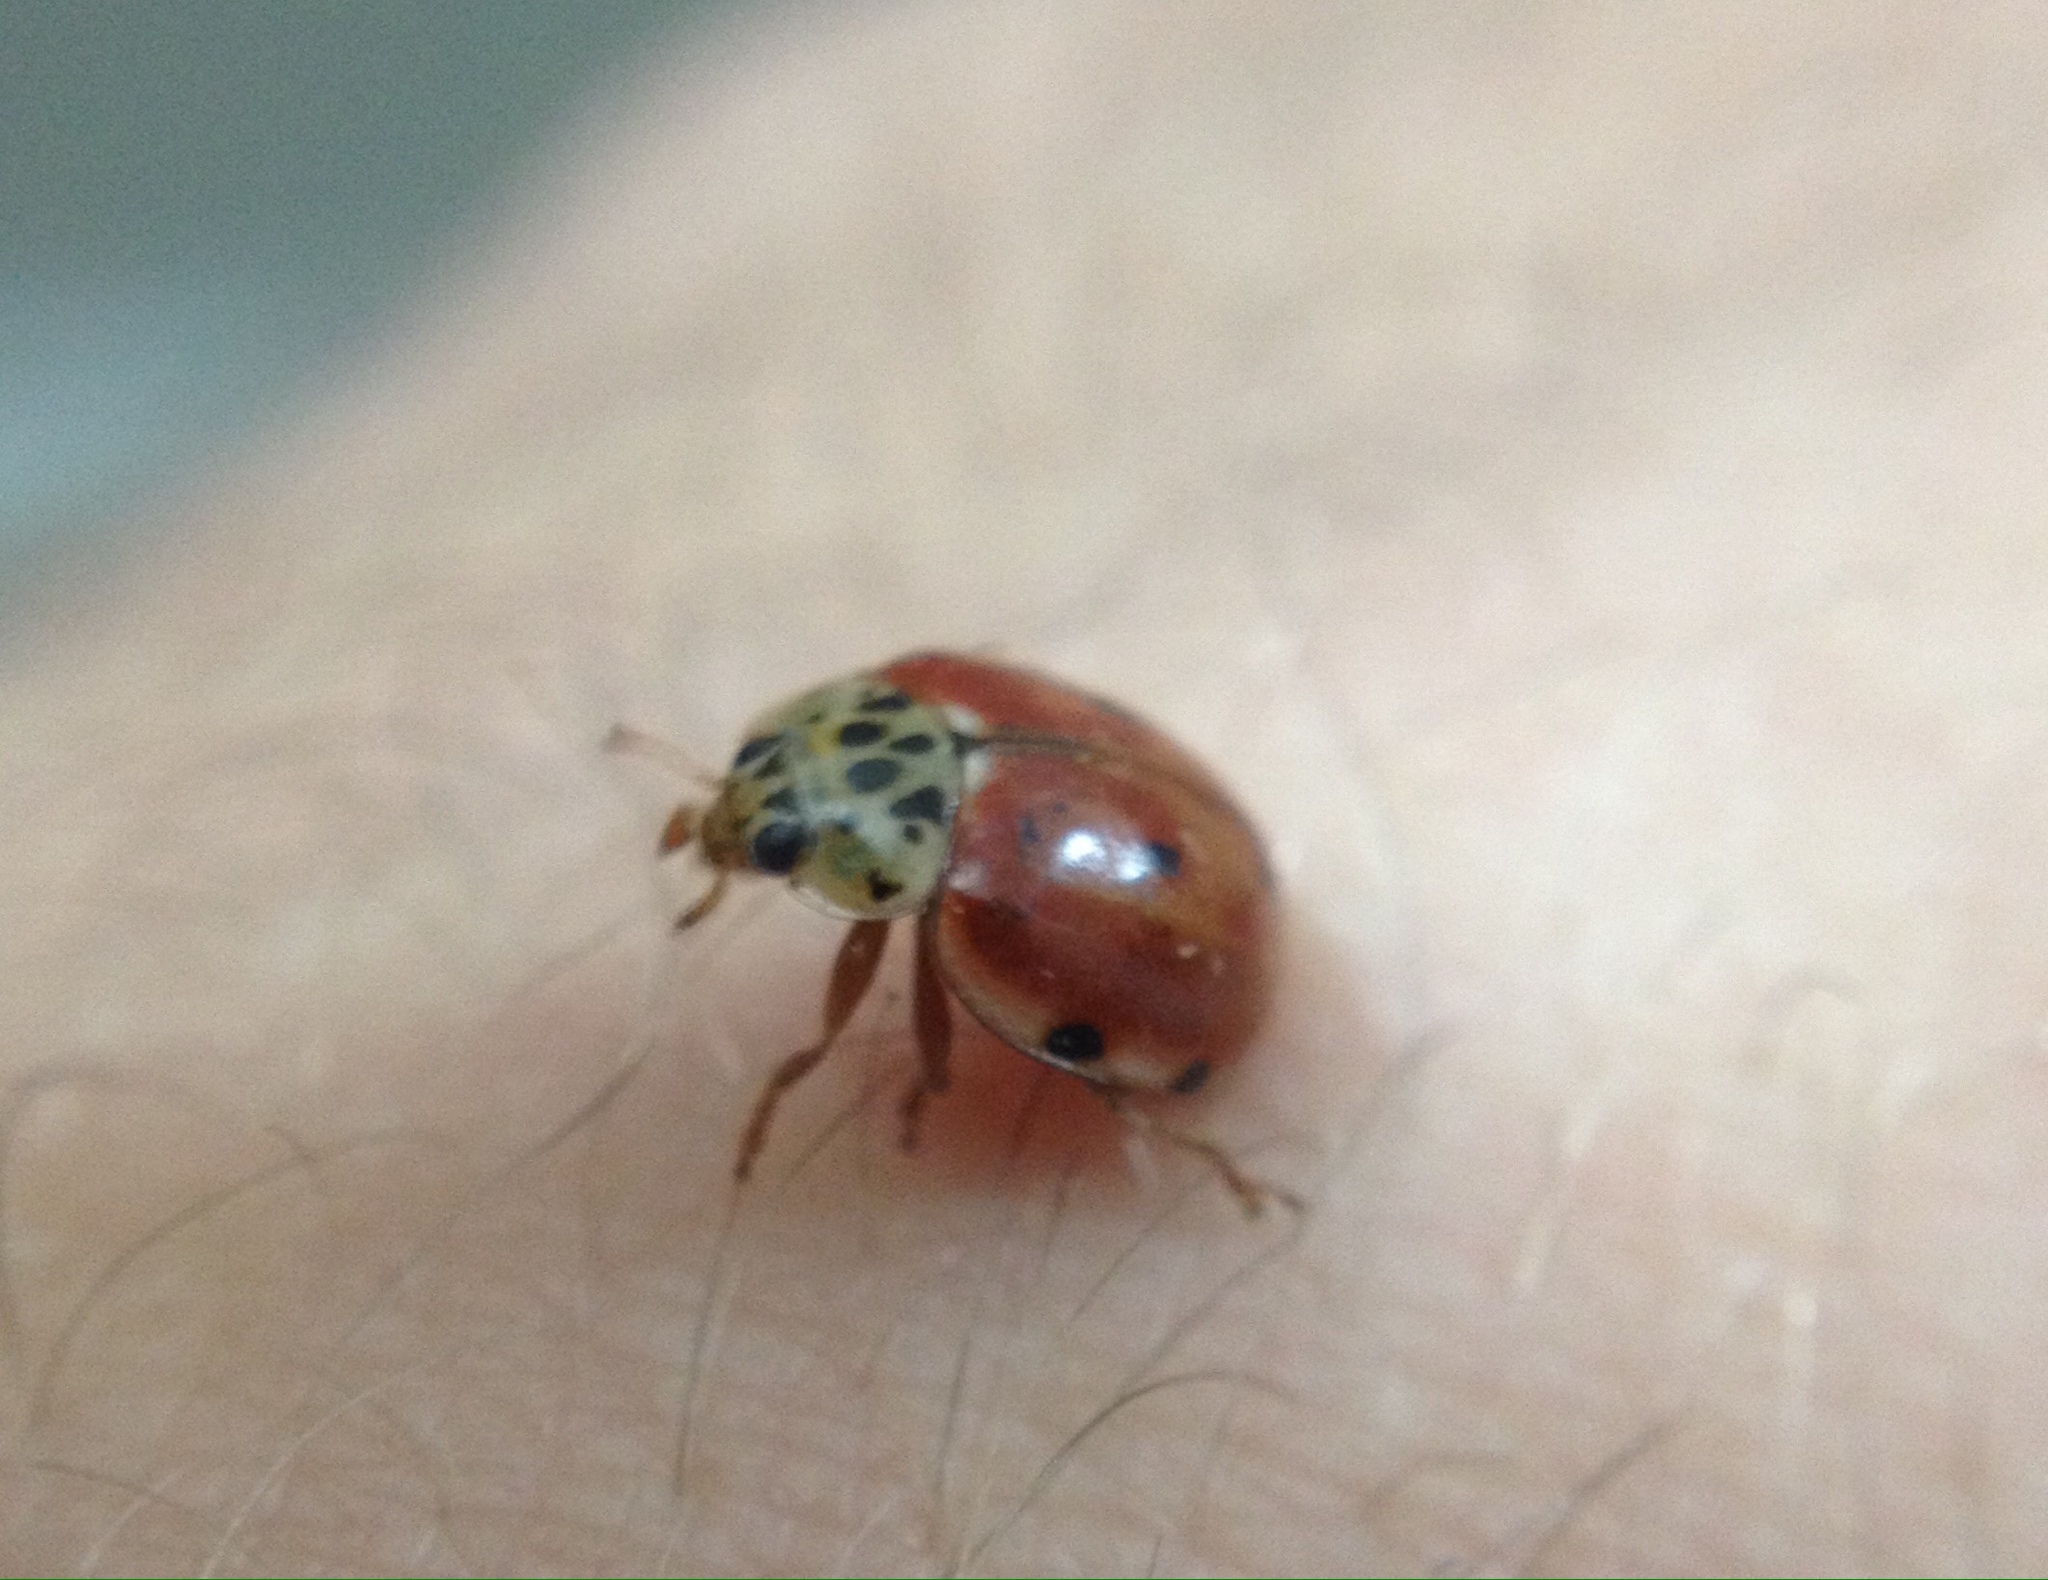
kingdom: Animalia
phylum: Arthropoda
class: Insecta
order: Coleoptera
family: Coccinellidae
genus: Harmonia
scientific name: Harmonia quadripunctata
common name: Cream-streaked ladybird
